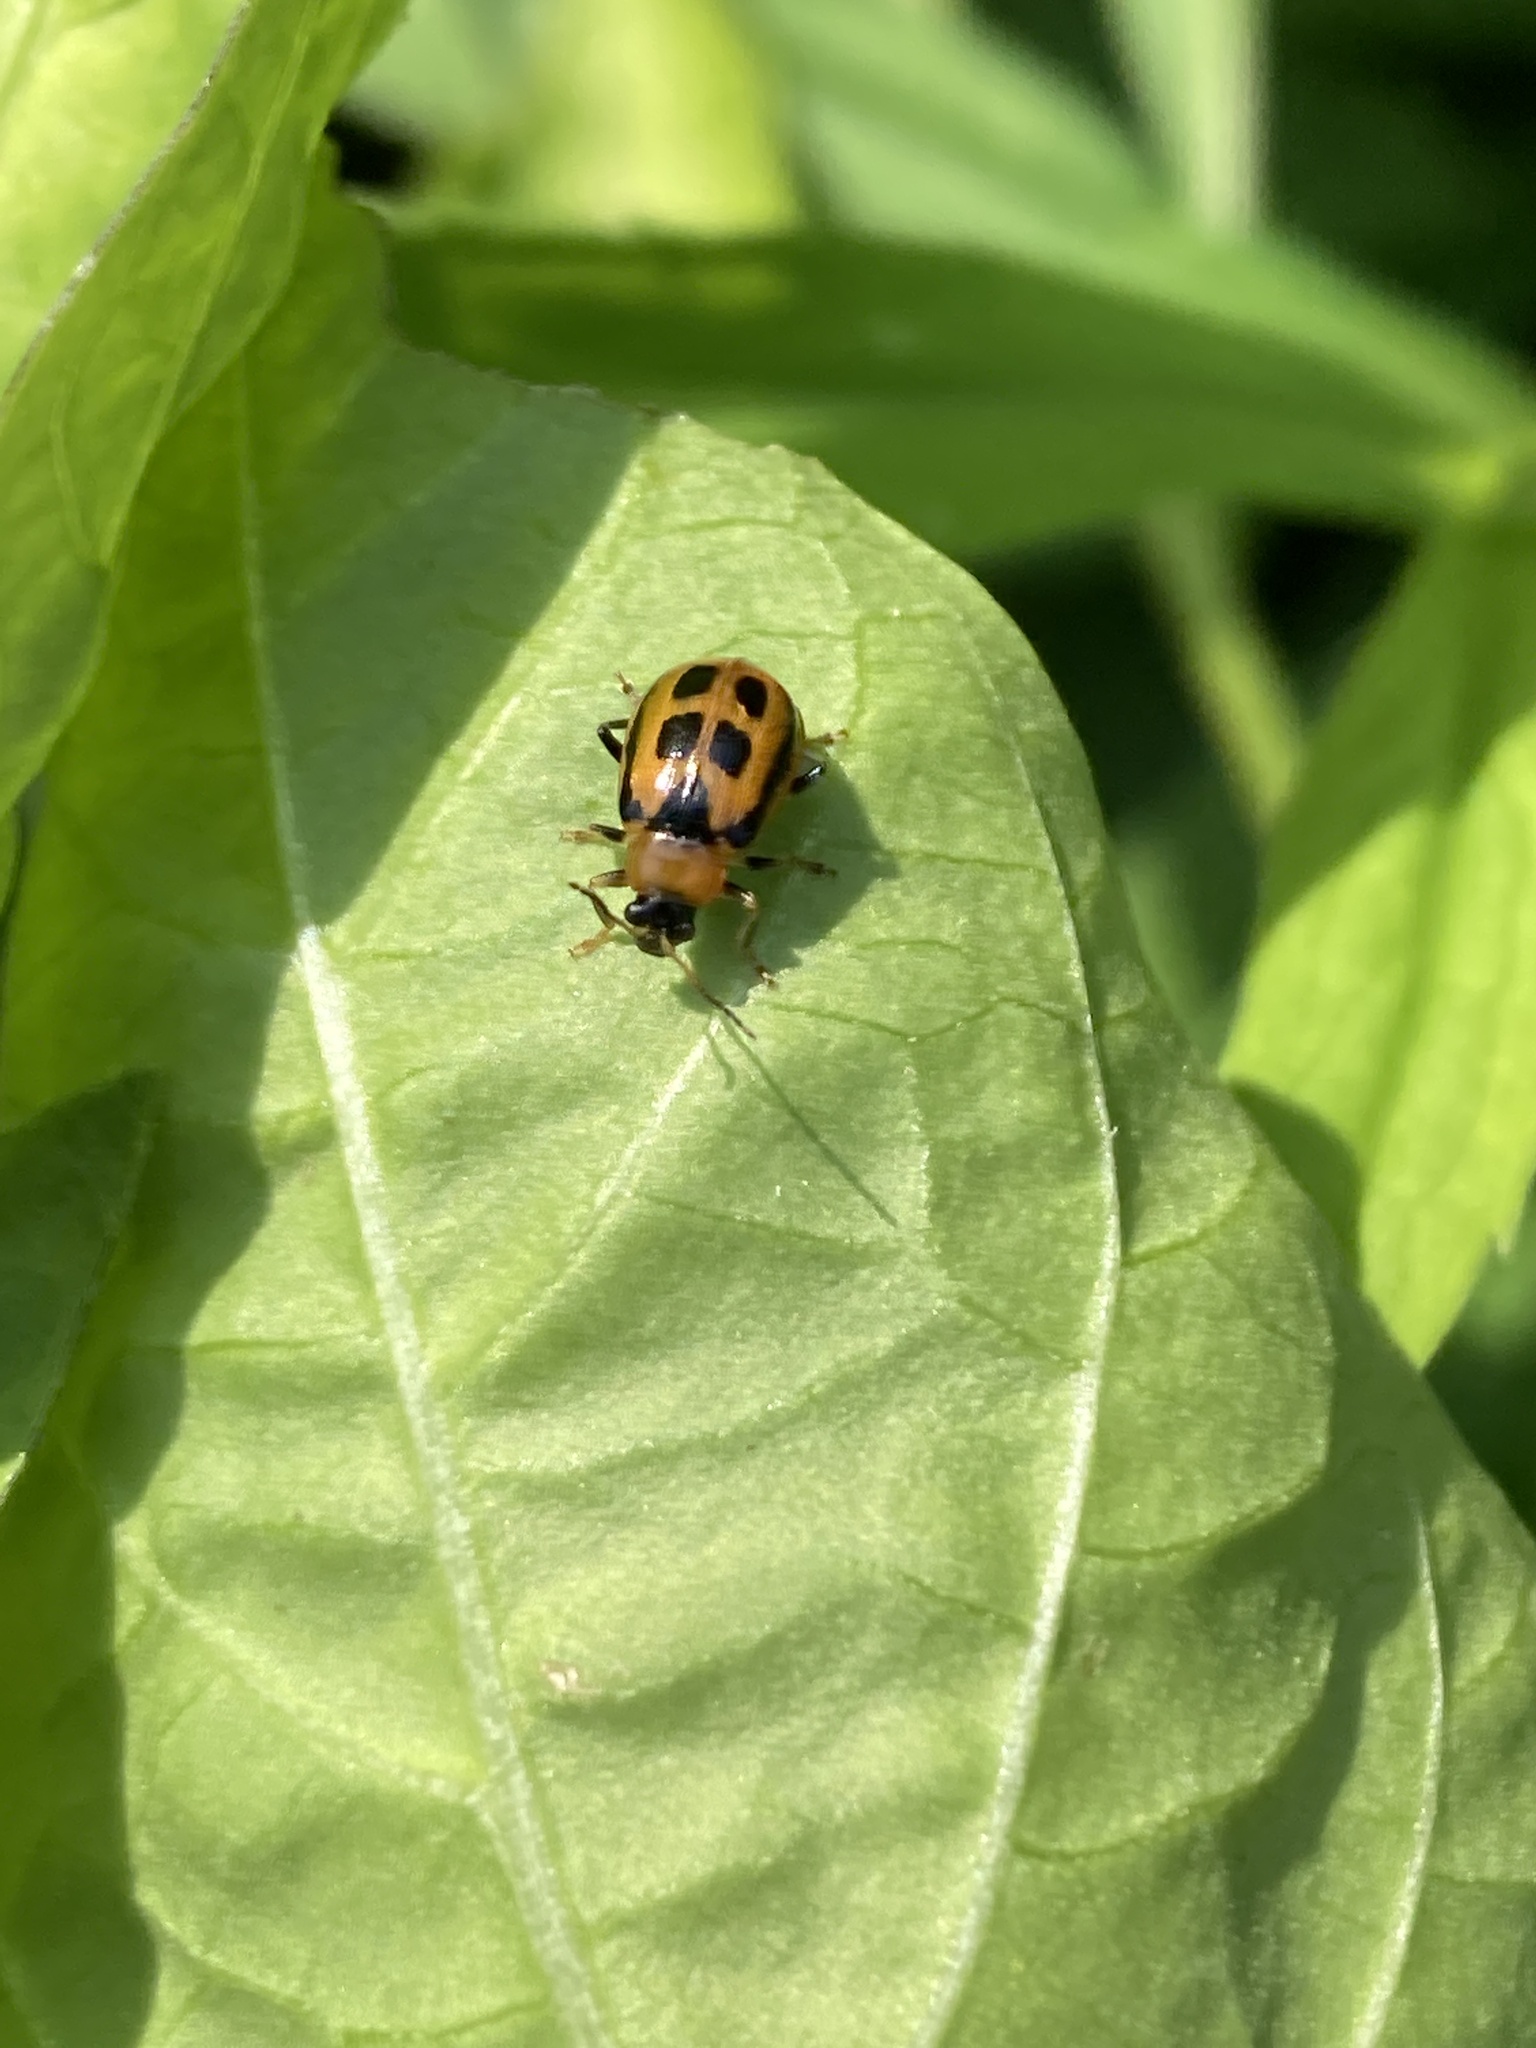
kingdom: Animalia
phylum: Arthropoda
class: Insecta
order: Coleoptera
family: Chrysomelidae
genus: Cerotoma
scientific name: Cerotoma trifurcata
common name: Bean leaf beetle
